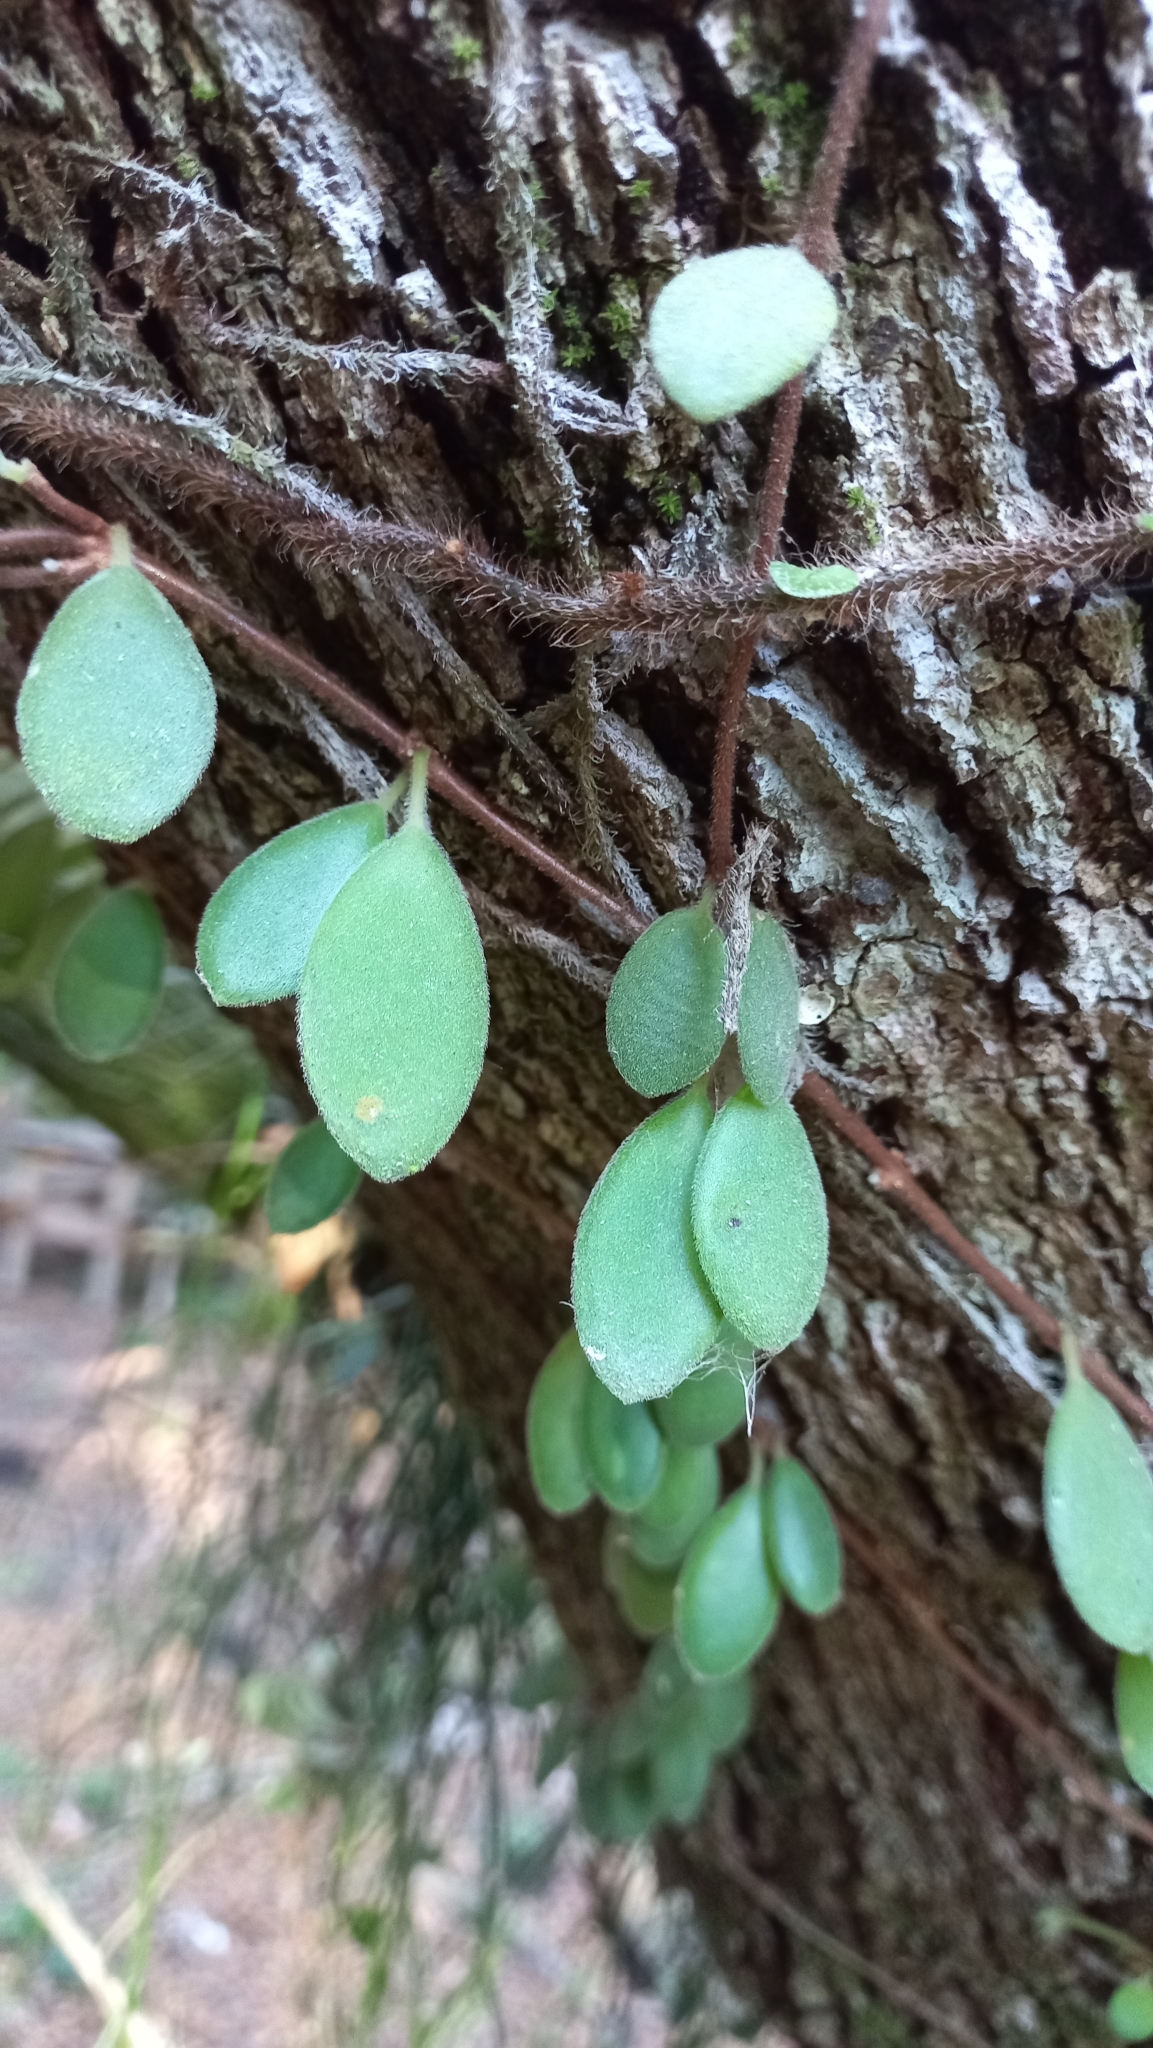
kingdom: Plantae
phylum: Tracheophyta
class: Magnoliopsida
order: Lamiales
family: Gesneriaceae
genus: Codonanthe
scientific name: Codonanthe devosiana
